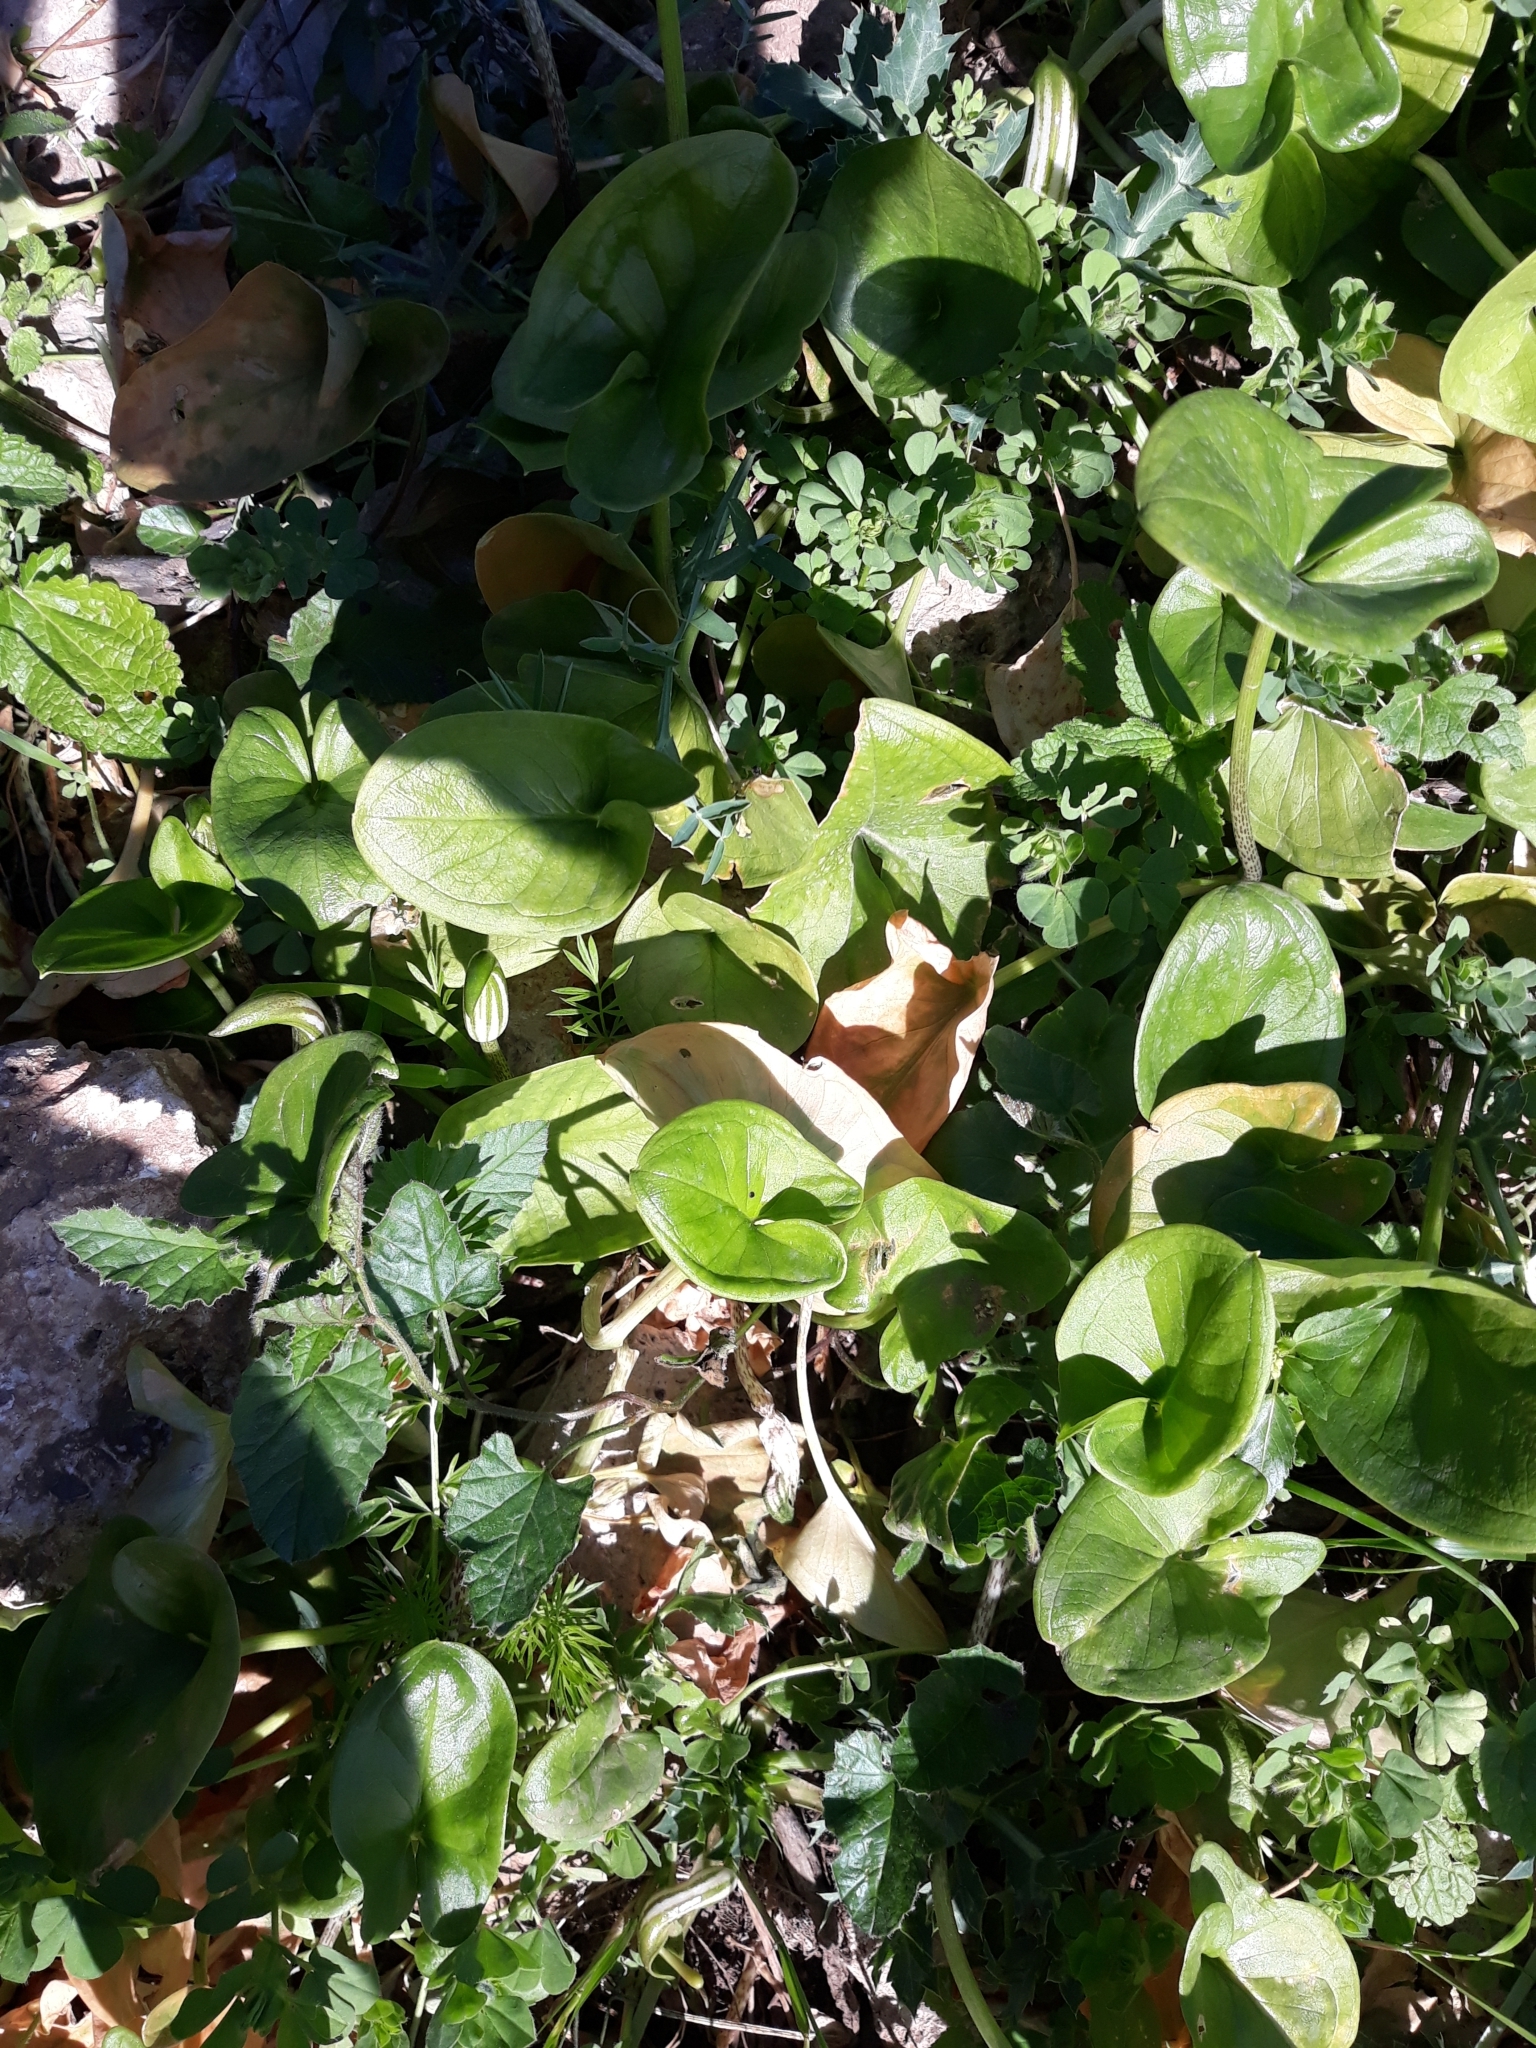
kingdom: Plantae
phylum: Tracheophyta
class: Liliopsida
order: Alismatales
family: Araceae
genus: Arisarum
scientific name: Arisarum vulgare
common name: Common arisarum
